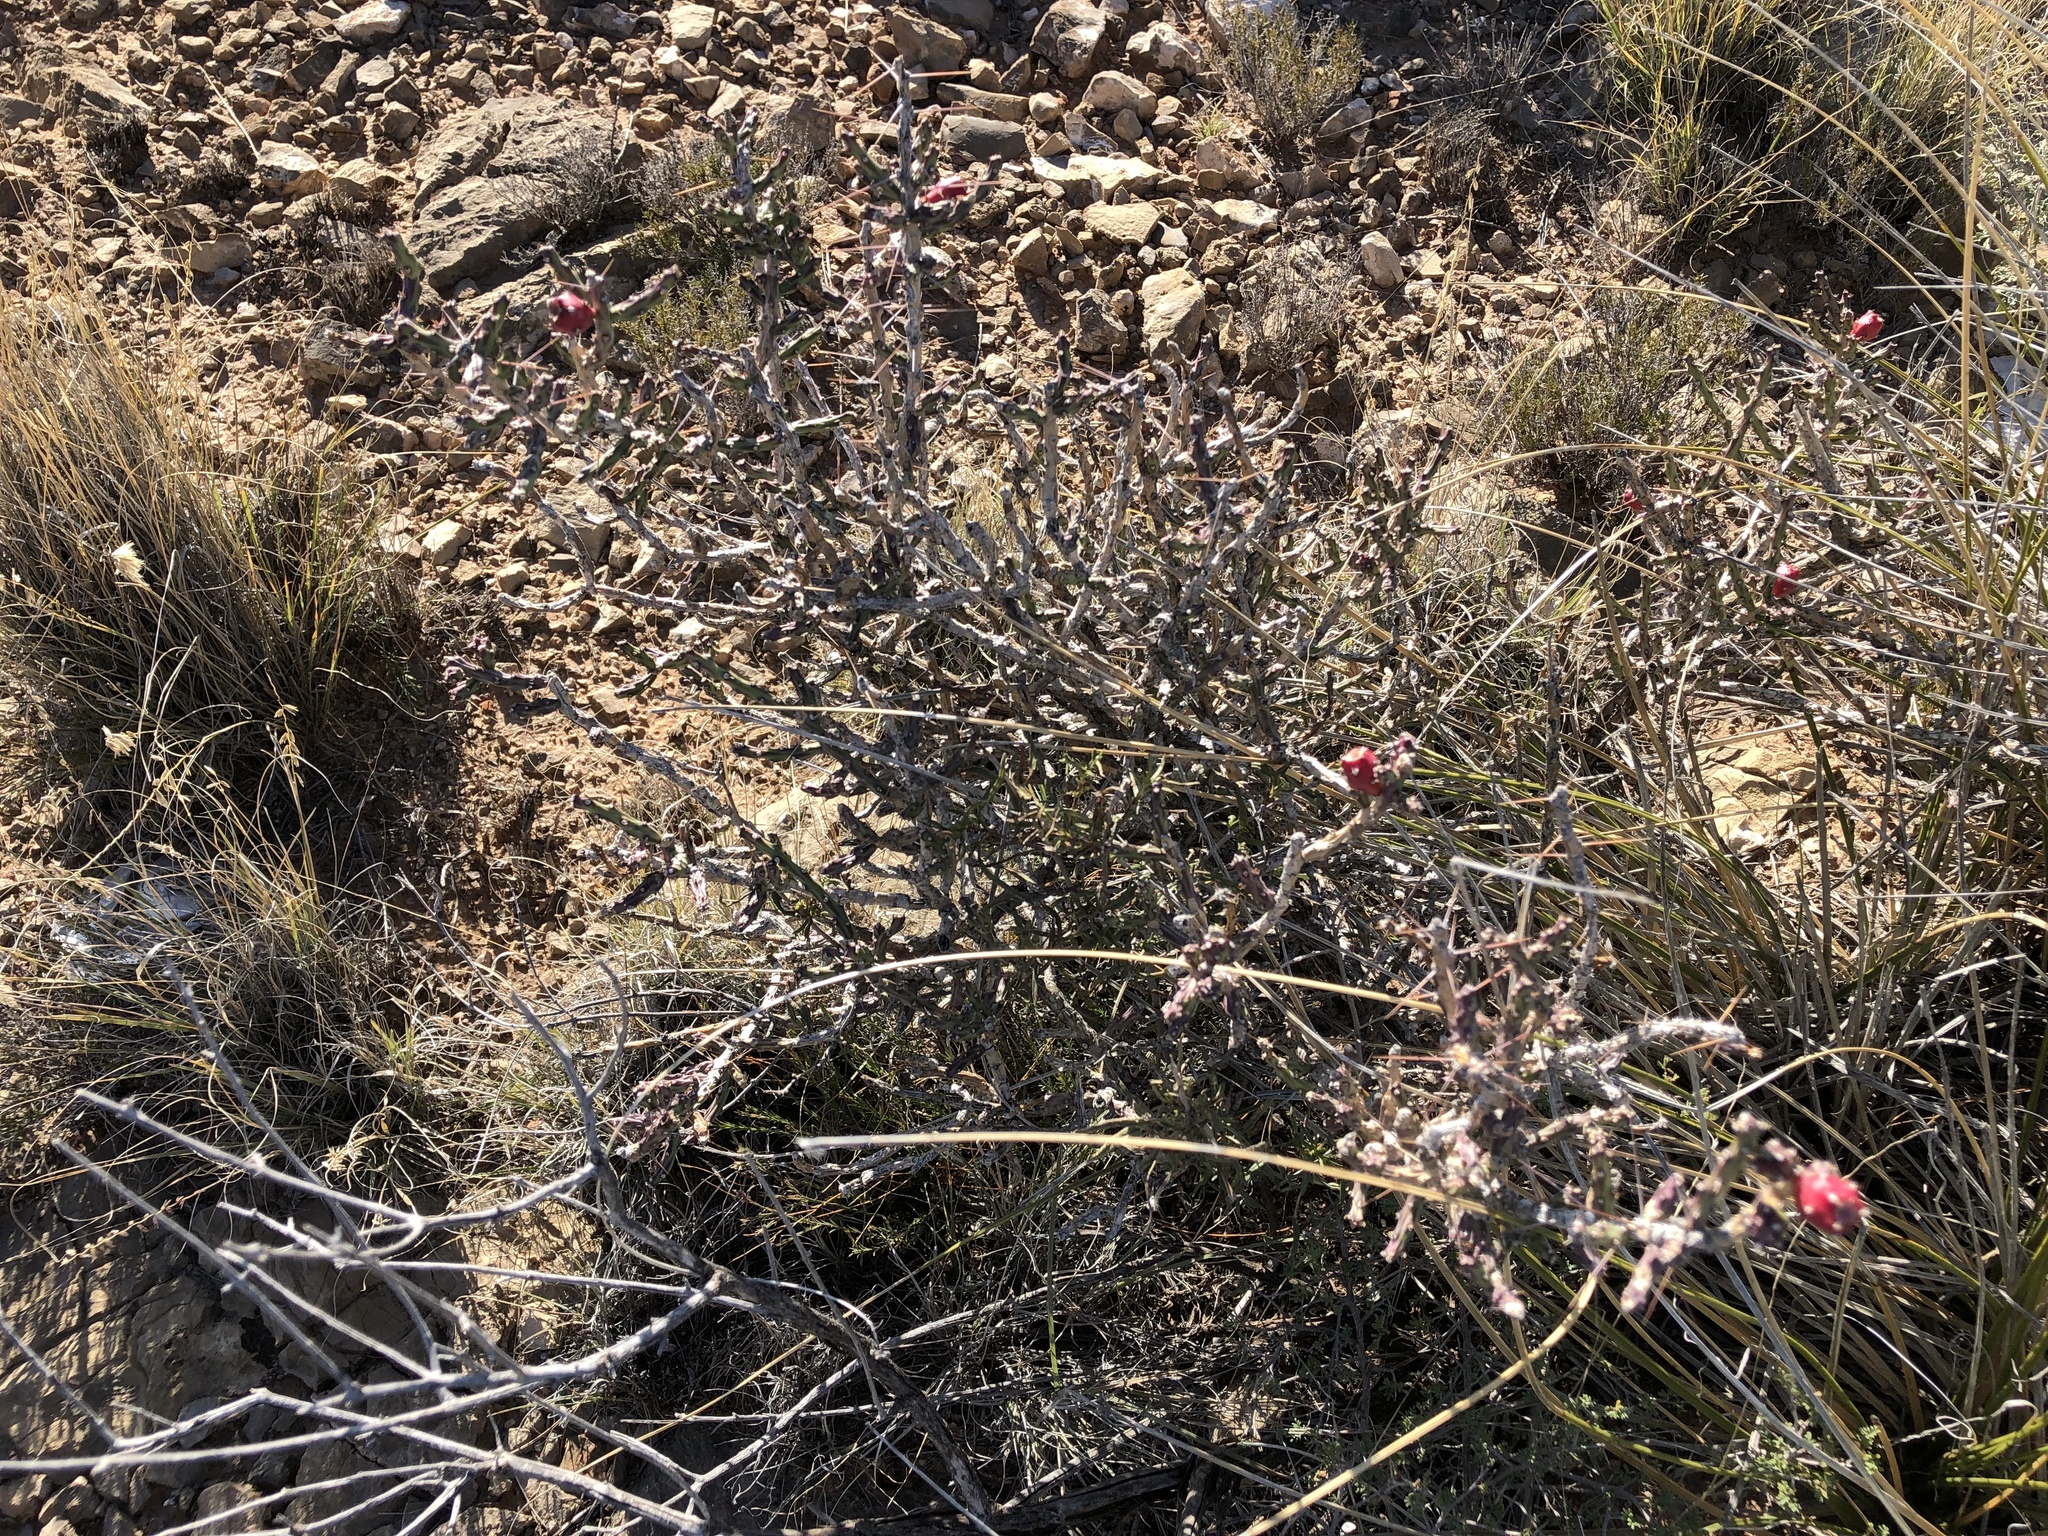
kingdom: Plantae
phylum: Tracheophyta
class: Magnoliopsida
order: Caryophyllales
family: Cactaceae
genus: Cylindropuntia
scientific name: Cylindropuntia leptocaulis
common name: Christmas cactus
